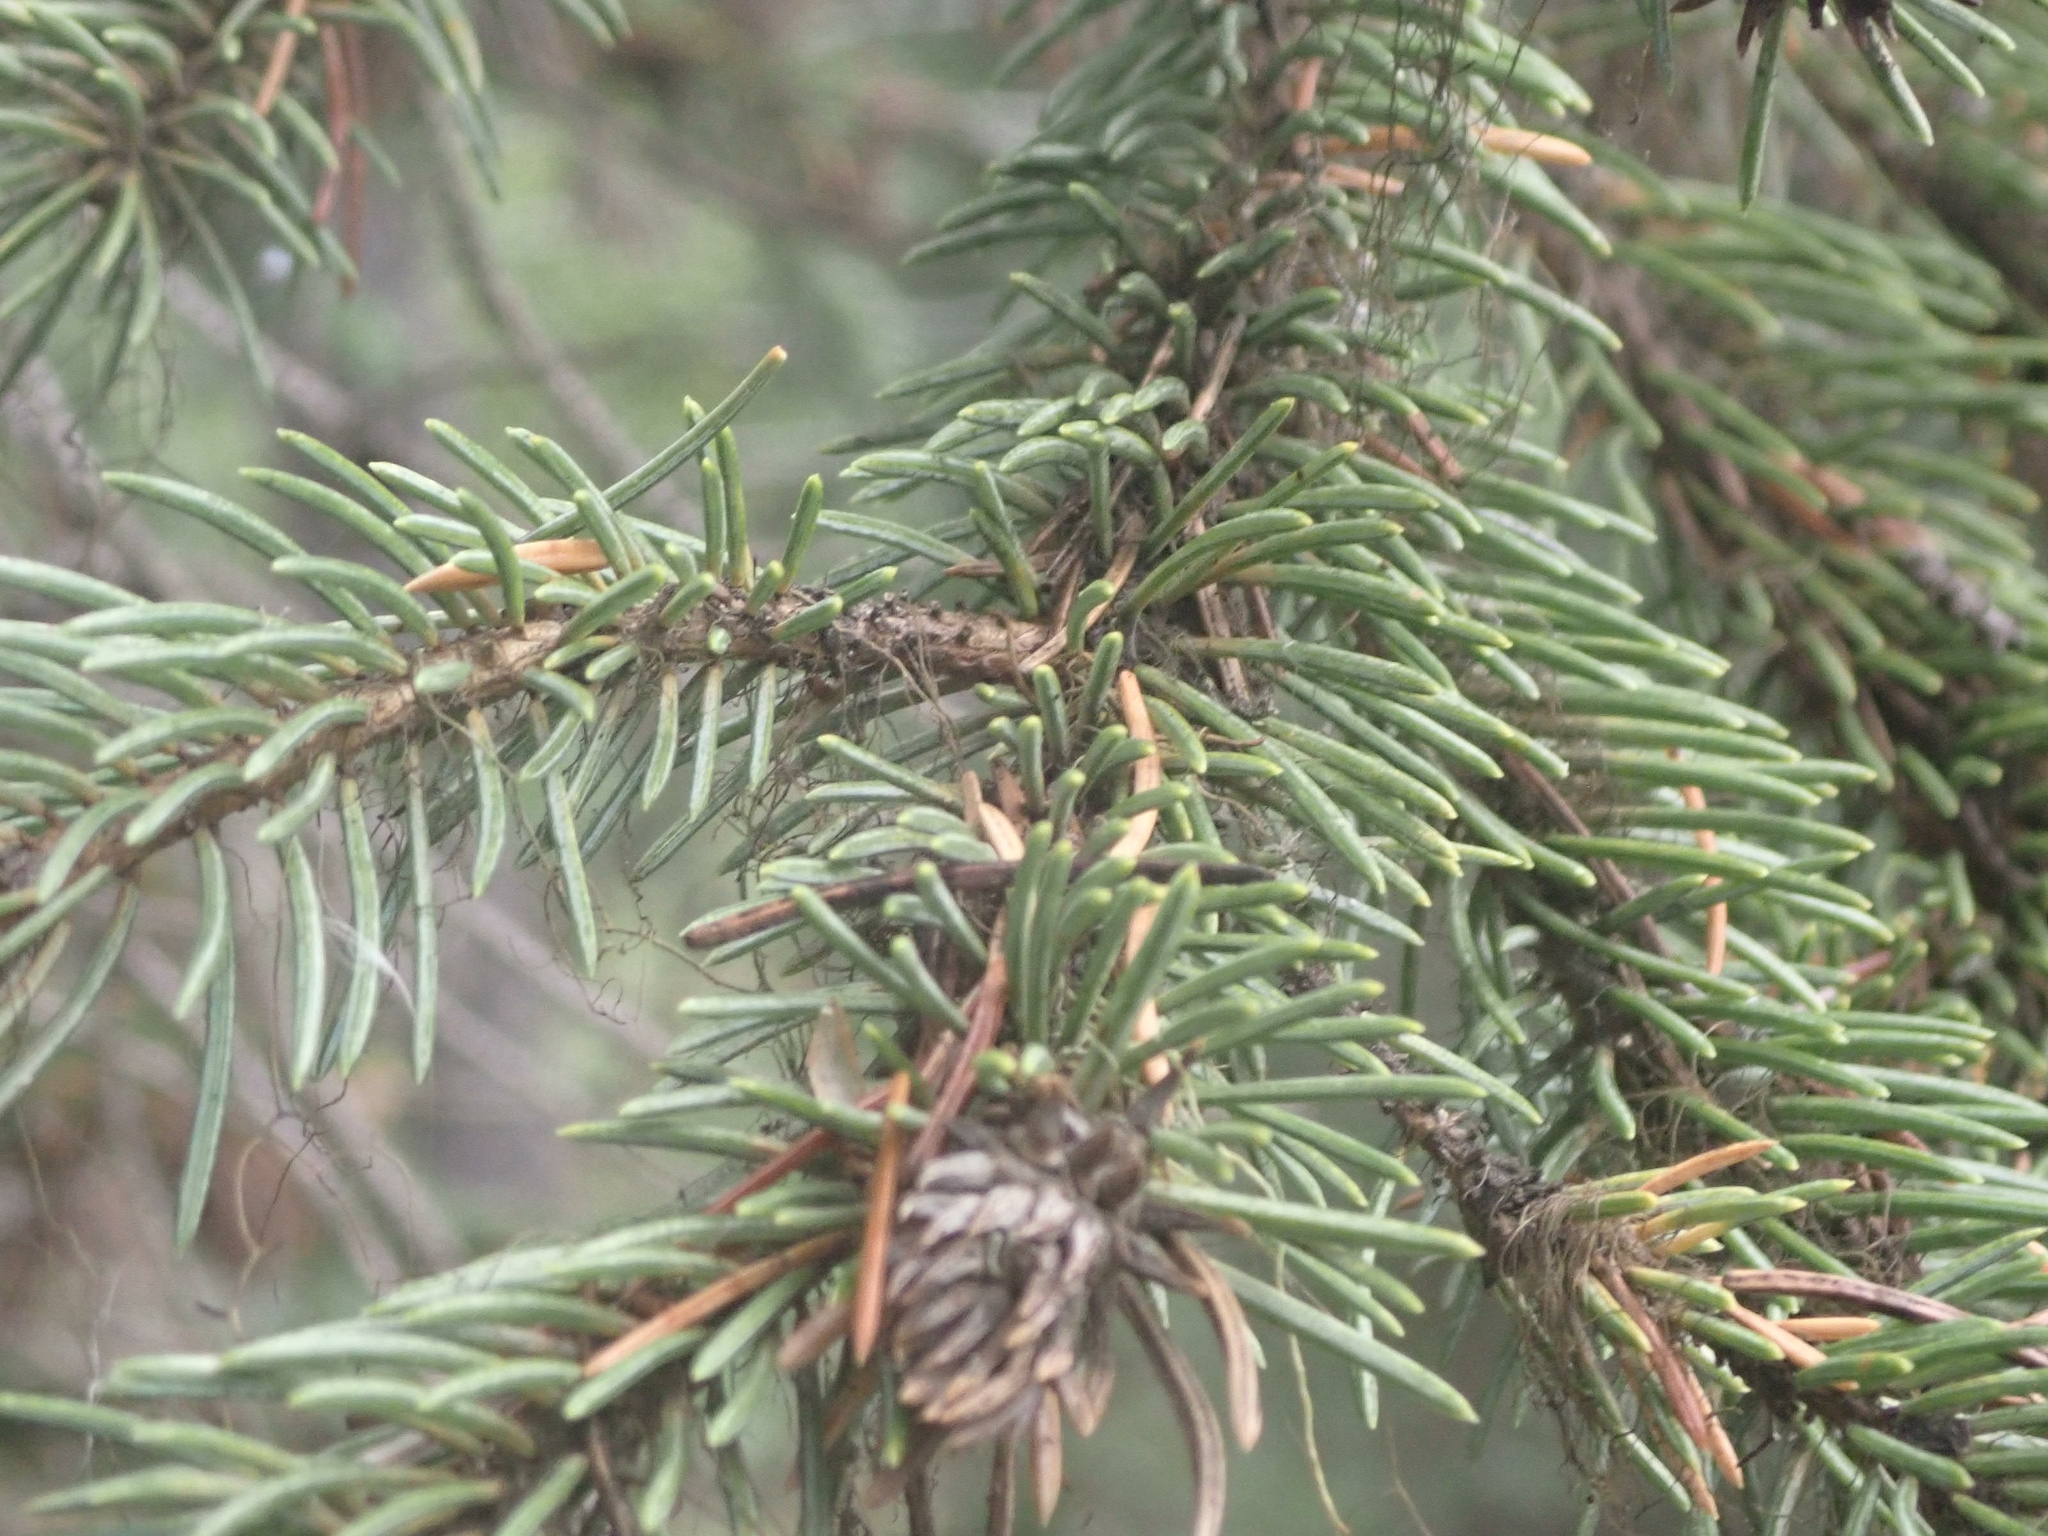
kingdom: Plantae
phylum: Tracheophyta
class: Pinopsida
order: Pinales
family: Pinaceae
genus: Picea
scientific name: Picea engelmannii
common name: Engelmann spruce
